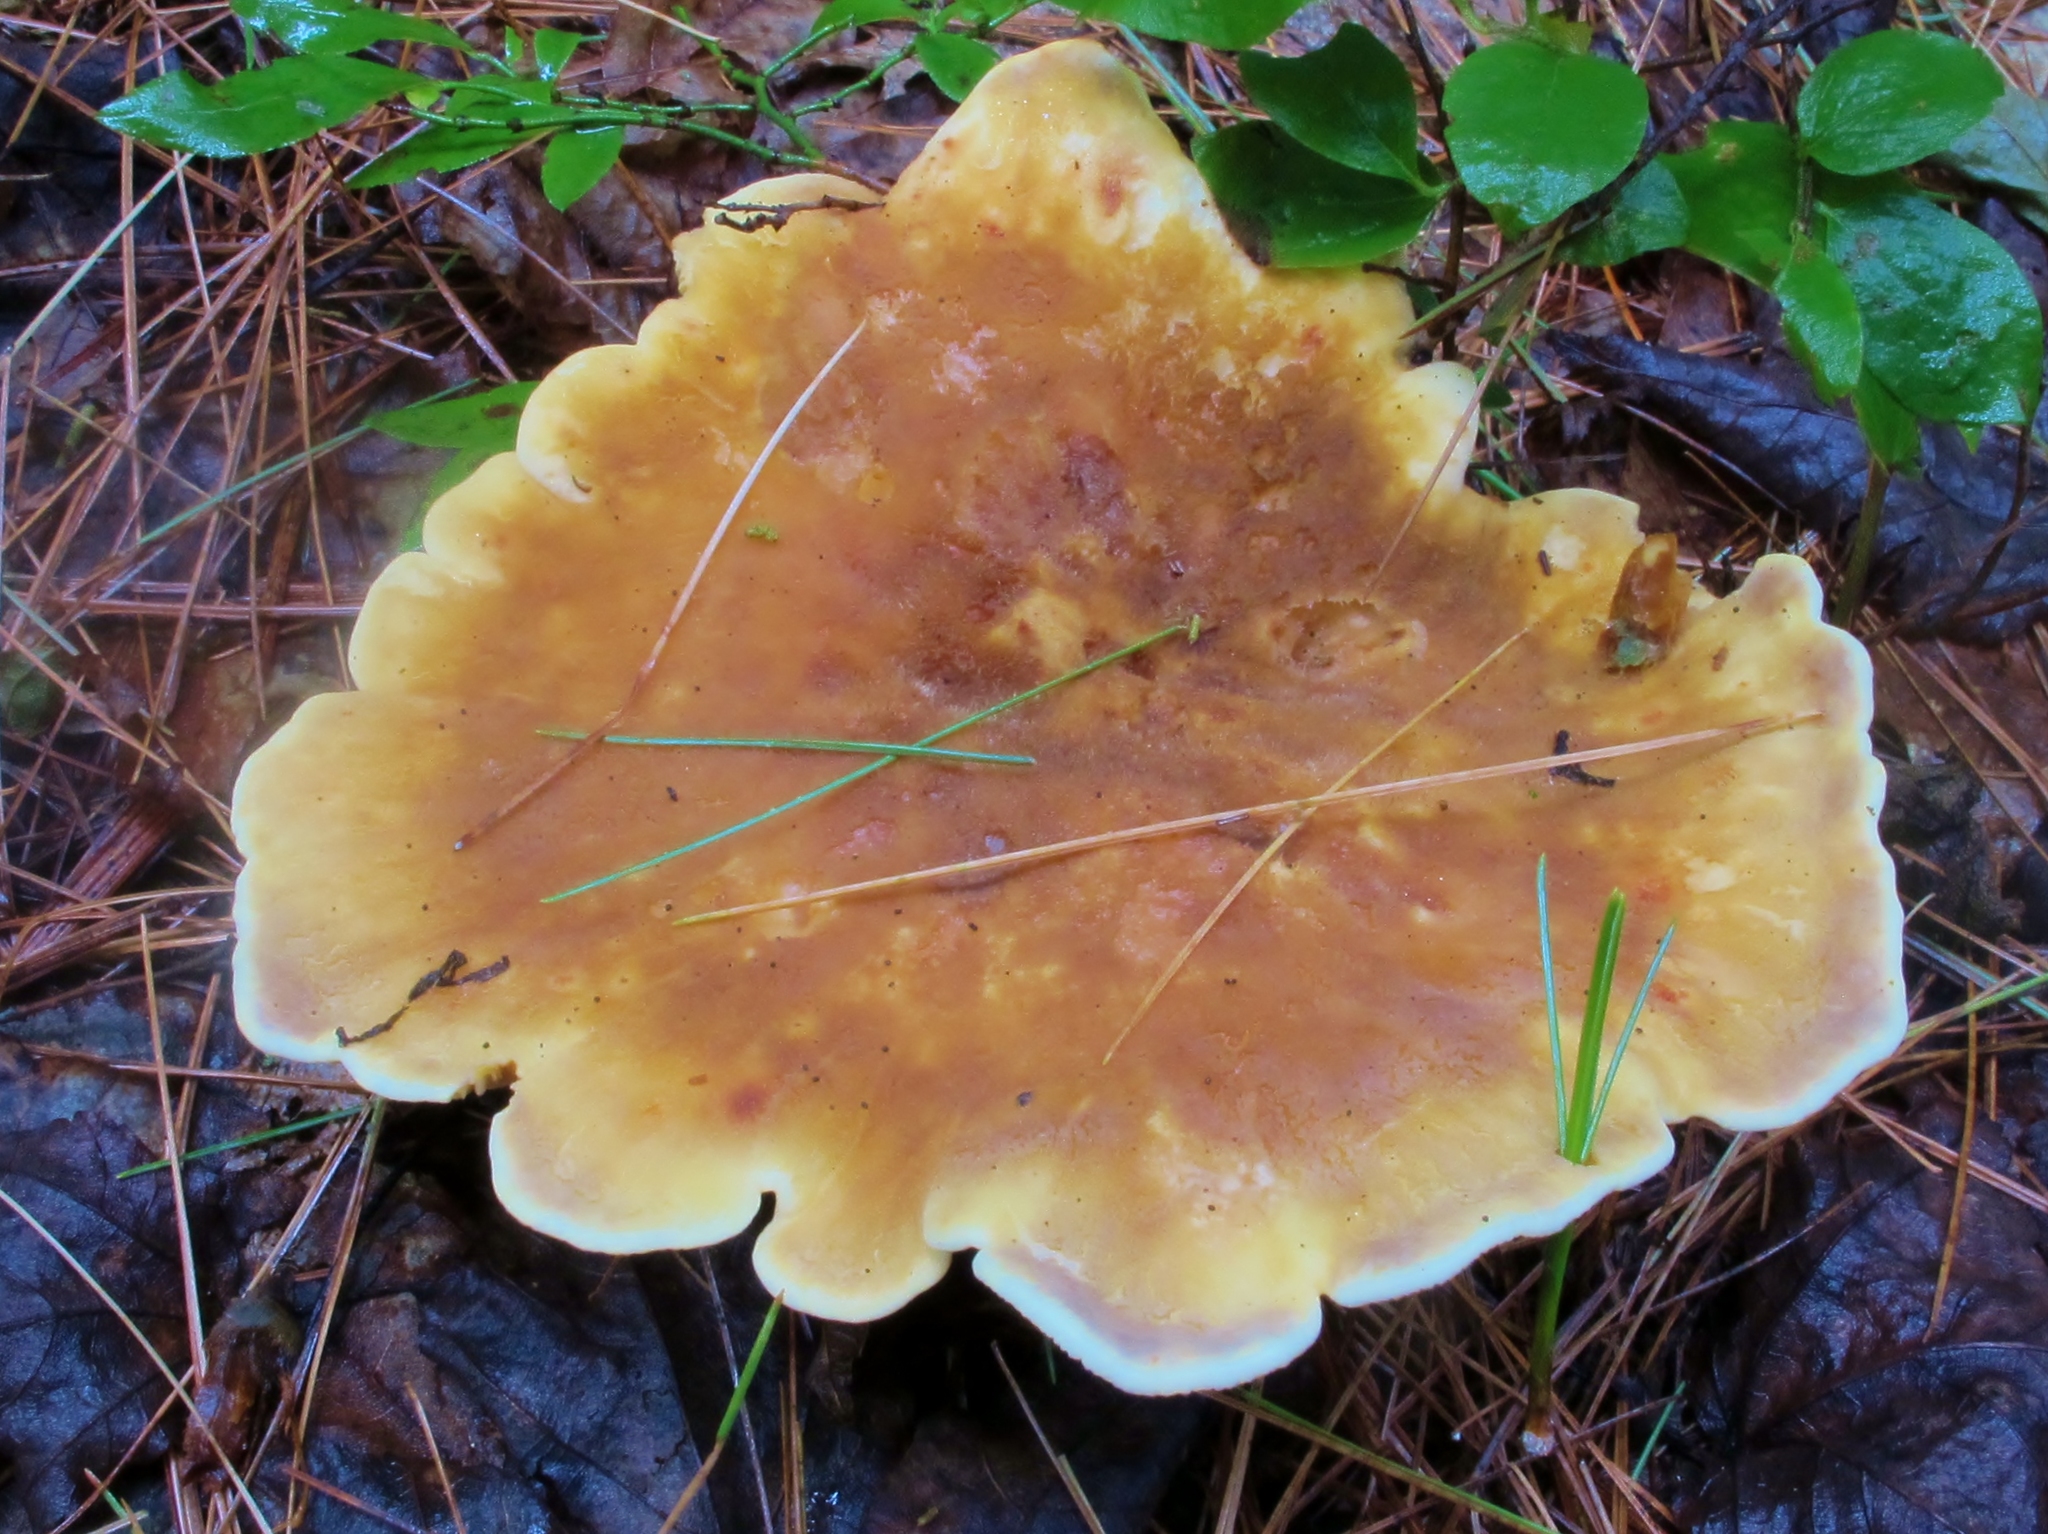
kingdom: Fungi
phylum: Basidiomycota
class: Agaricomycetes
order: Boletales
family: Tapinellaceae
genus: Tapinella
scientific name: Tapinella atrotomentosa
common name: Velvet rollrim
